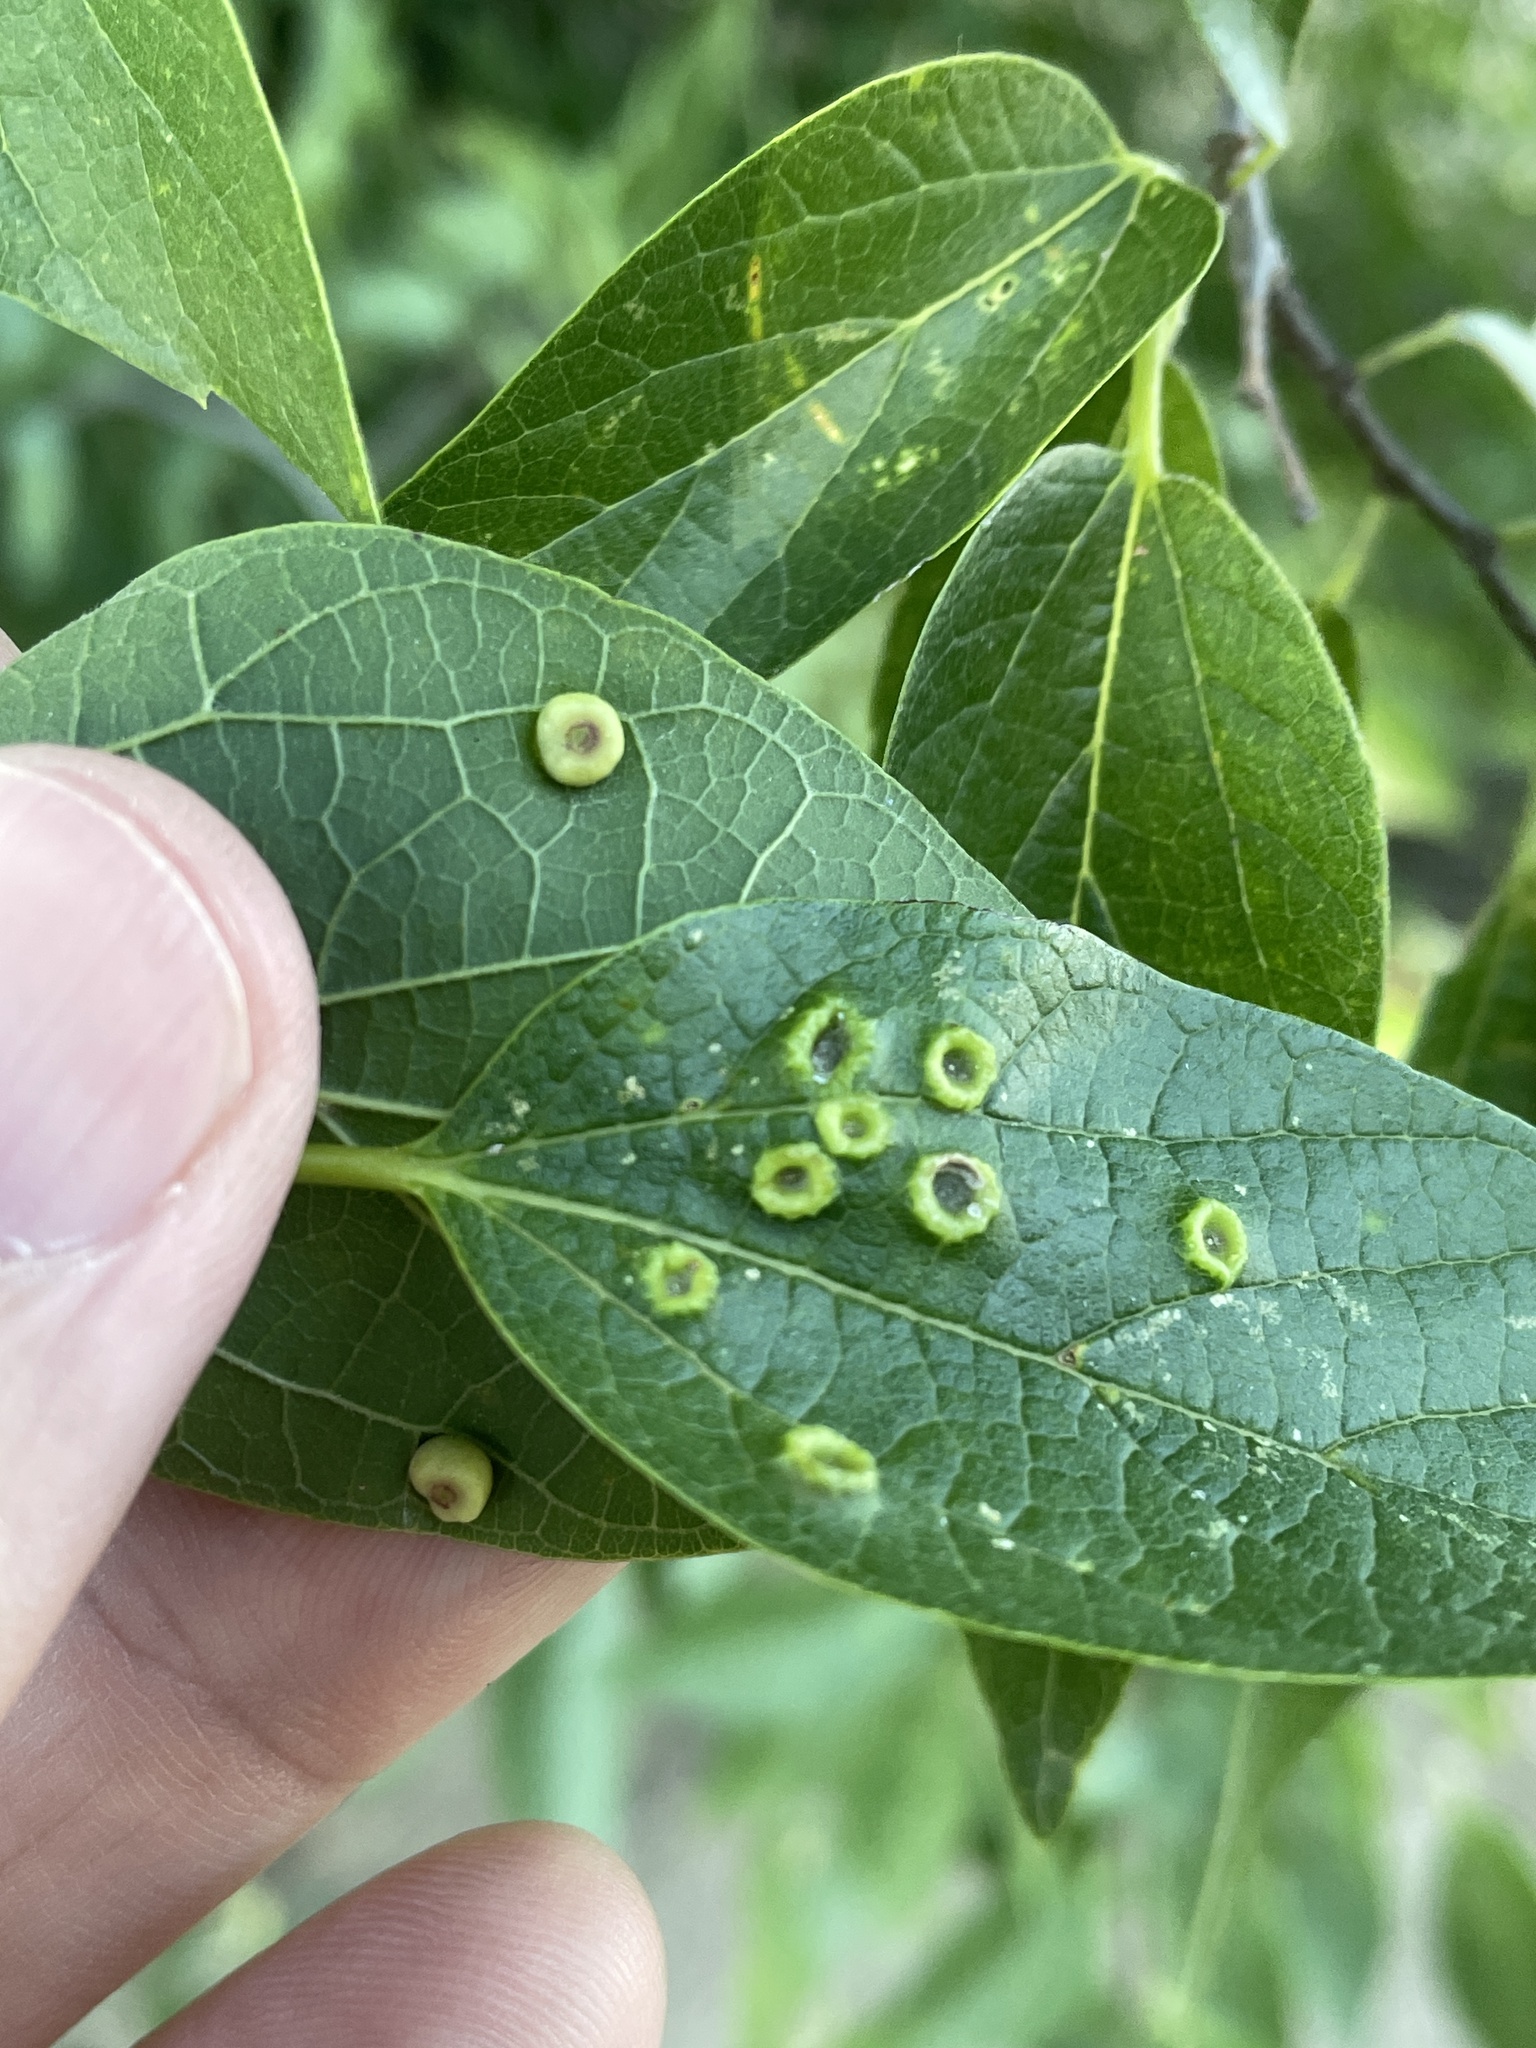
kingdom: Animalia
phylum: Arthropoda
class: Insecta
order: Hemiptera
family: Aphalaridae
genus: Pachypsylla
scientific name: Pachypsylla celtidismamma
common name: Hackberry nipplegall psyllid
